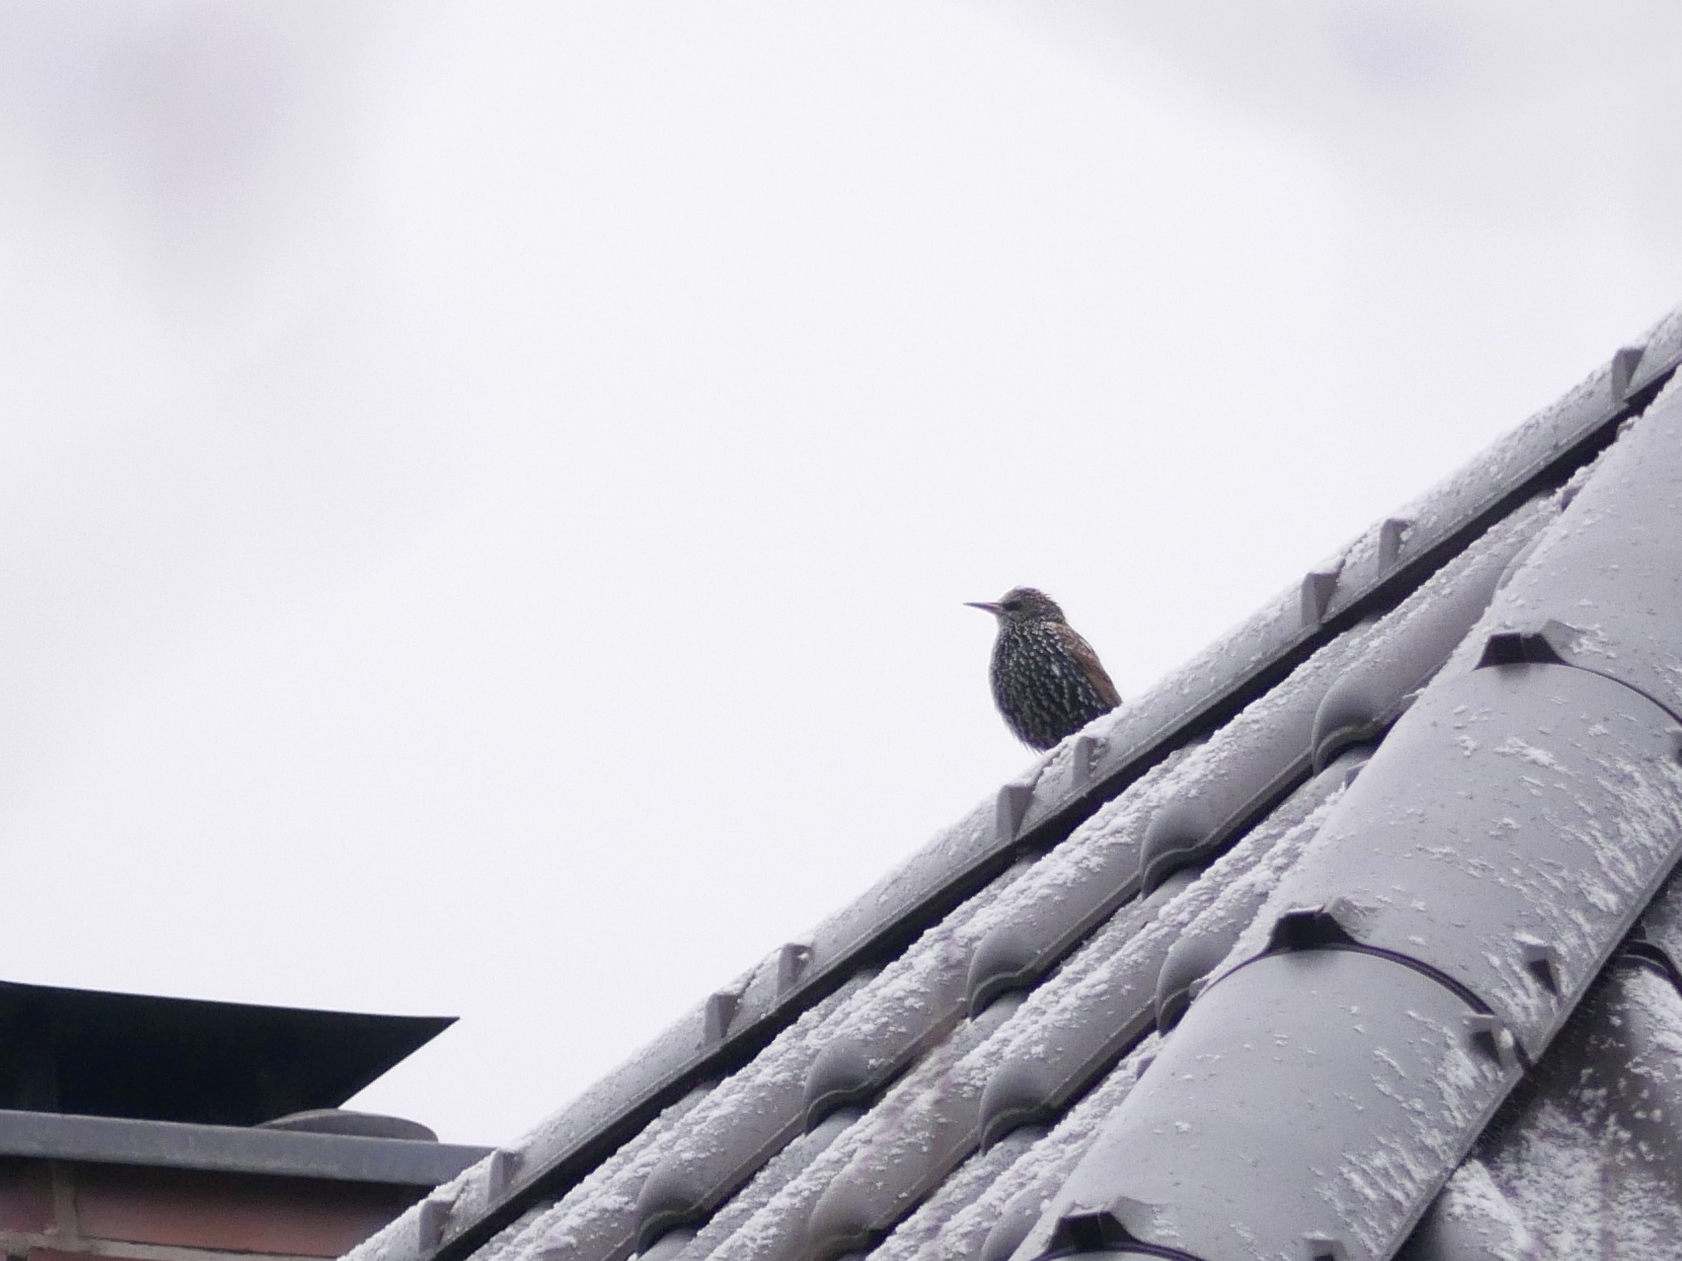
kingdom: Animalia
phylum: Chordata
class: Aves
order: Passeriformes
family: Sturnidae
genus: Sturnus
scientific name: Sturnus vulgaris
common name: Common starling
